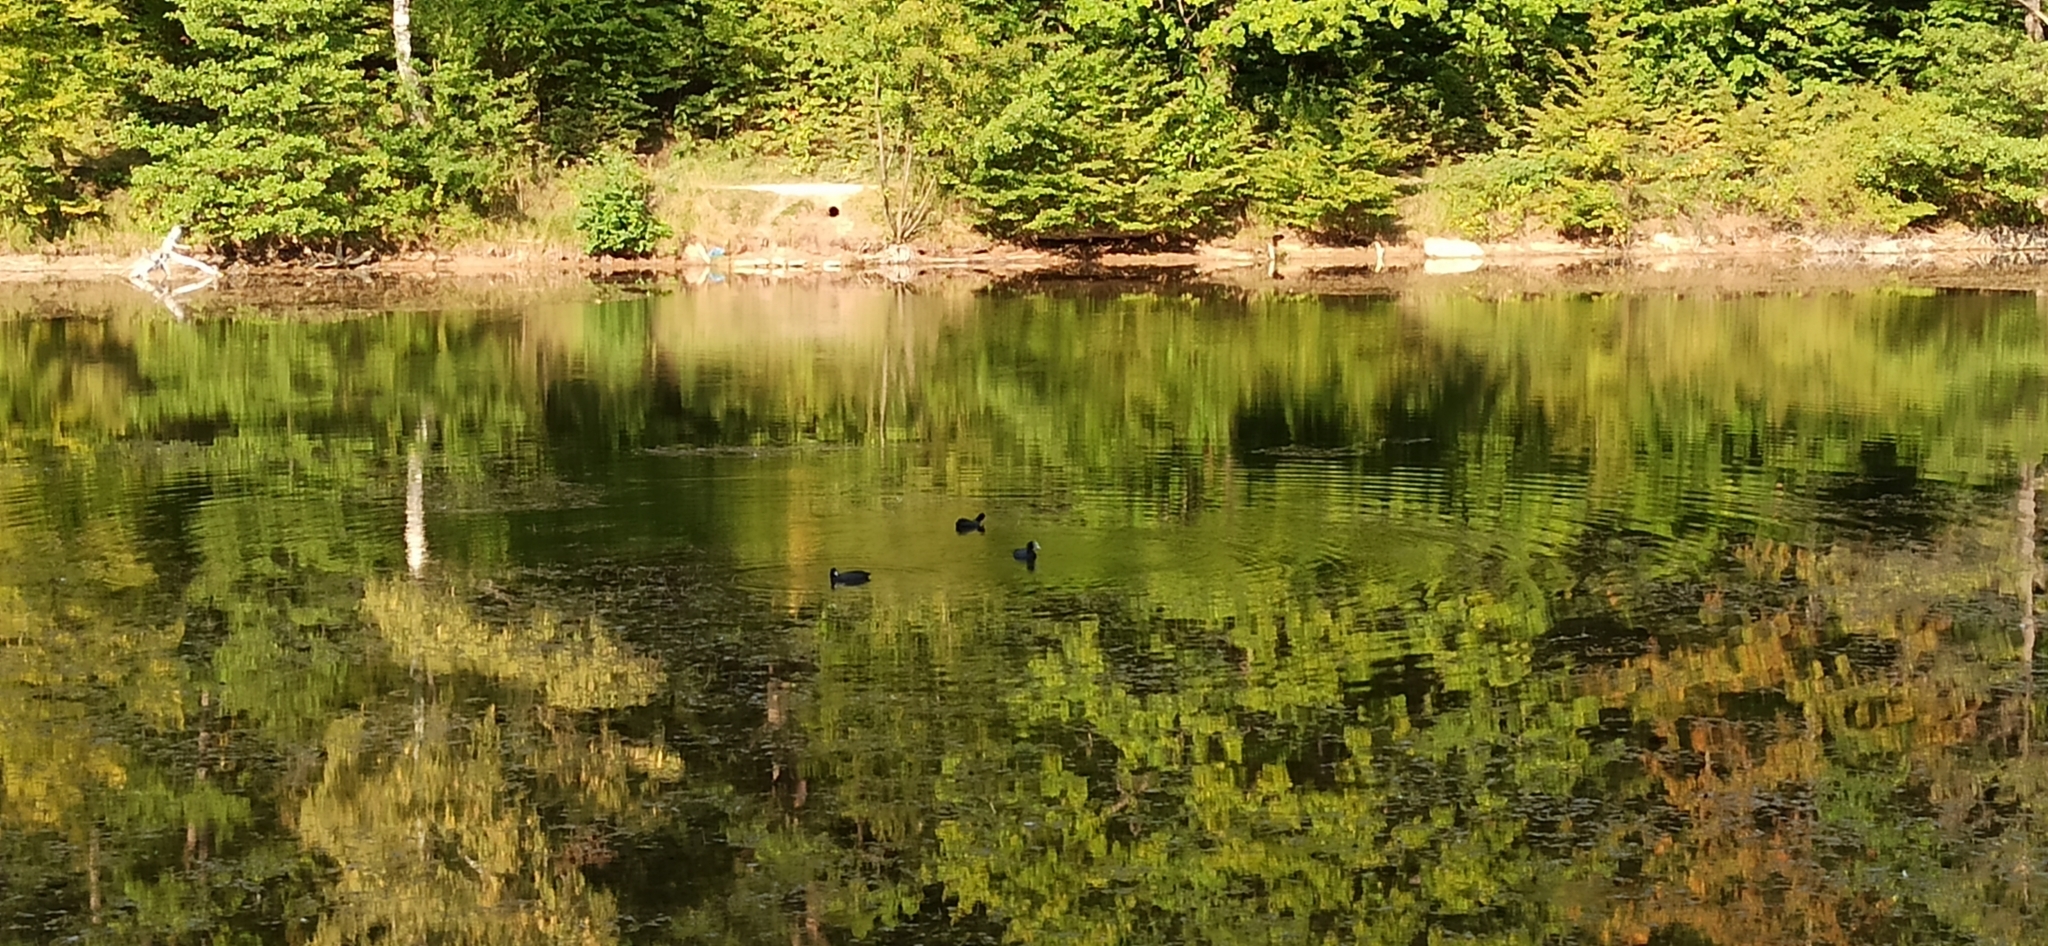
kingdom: Animalia
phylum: Chordata
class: Aves
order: Gruiformes
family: Rallidae
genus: Fulica
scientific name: Fulica atra
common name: Eurasian coot
